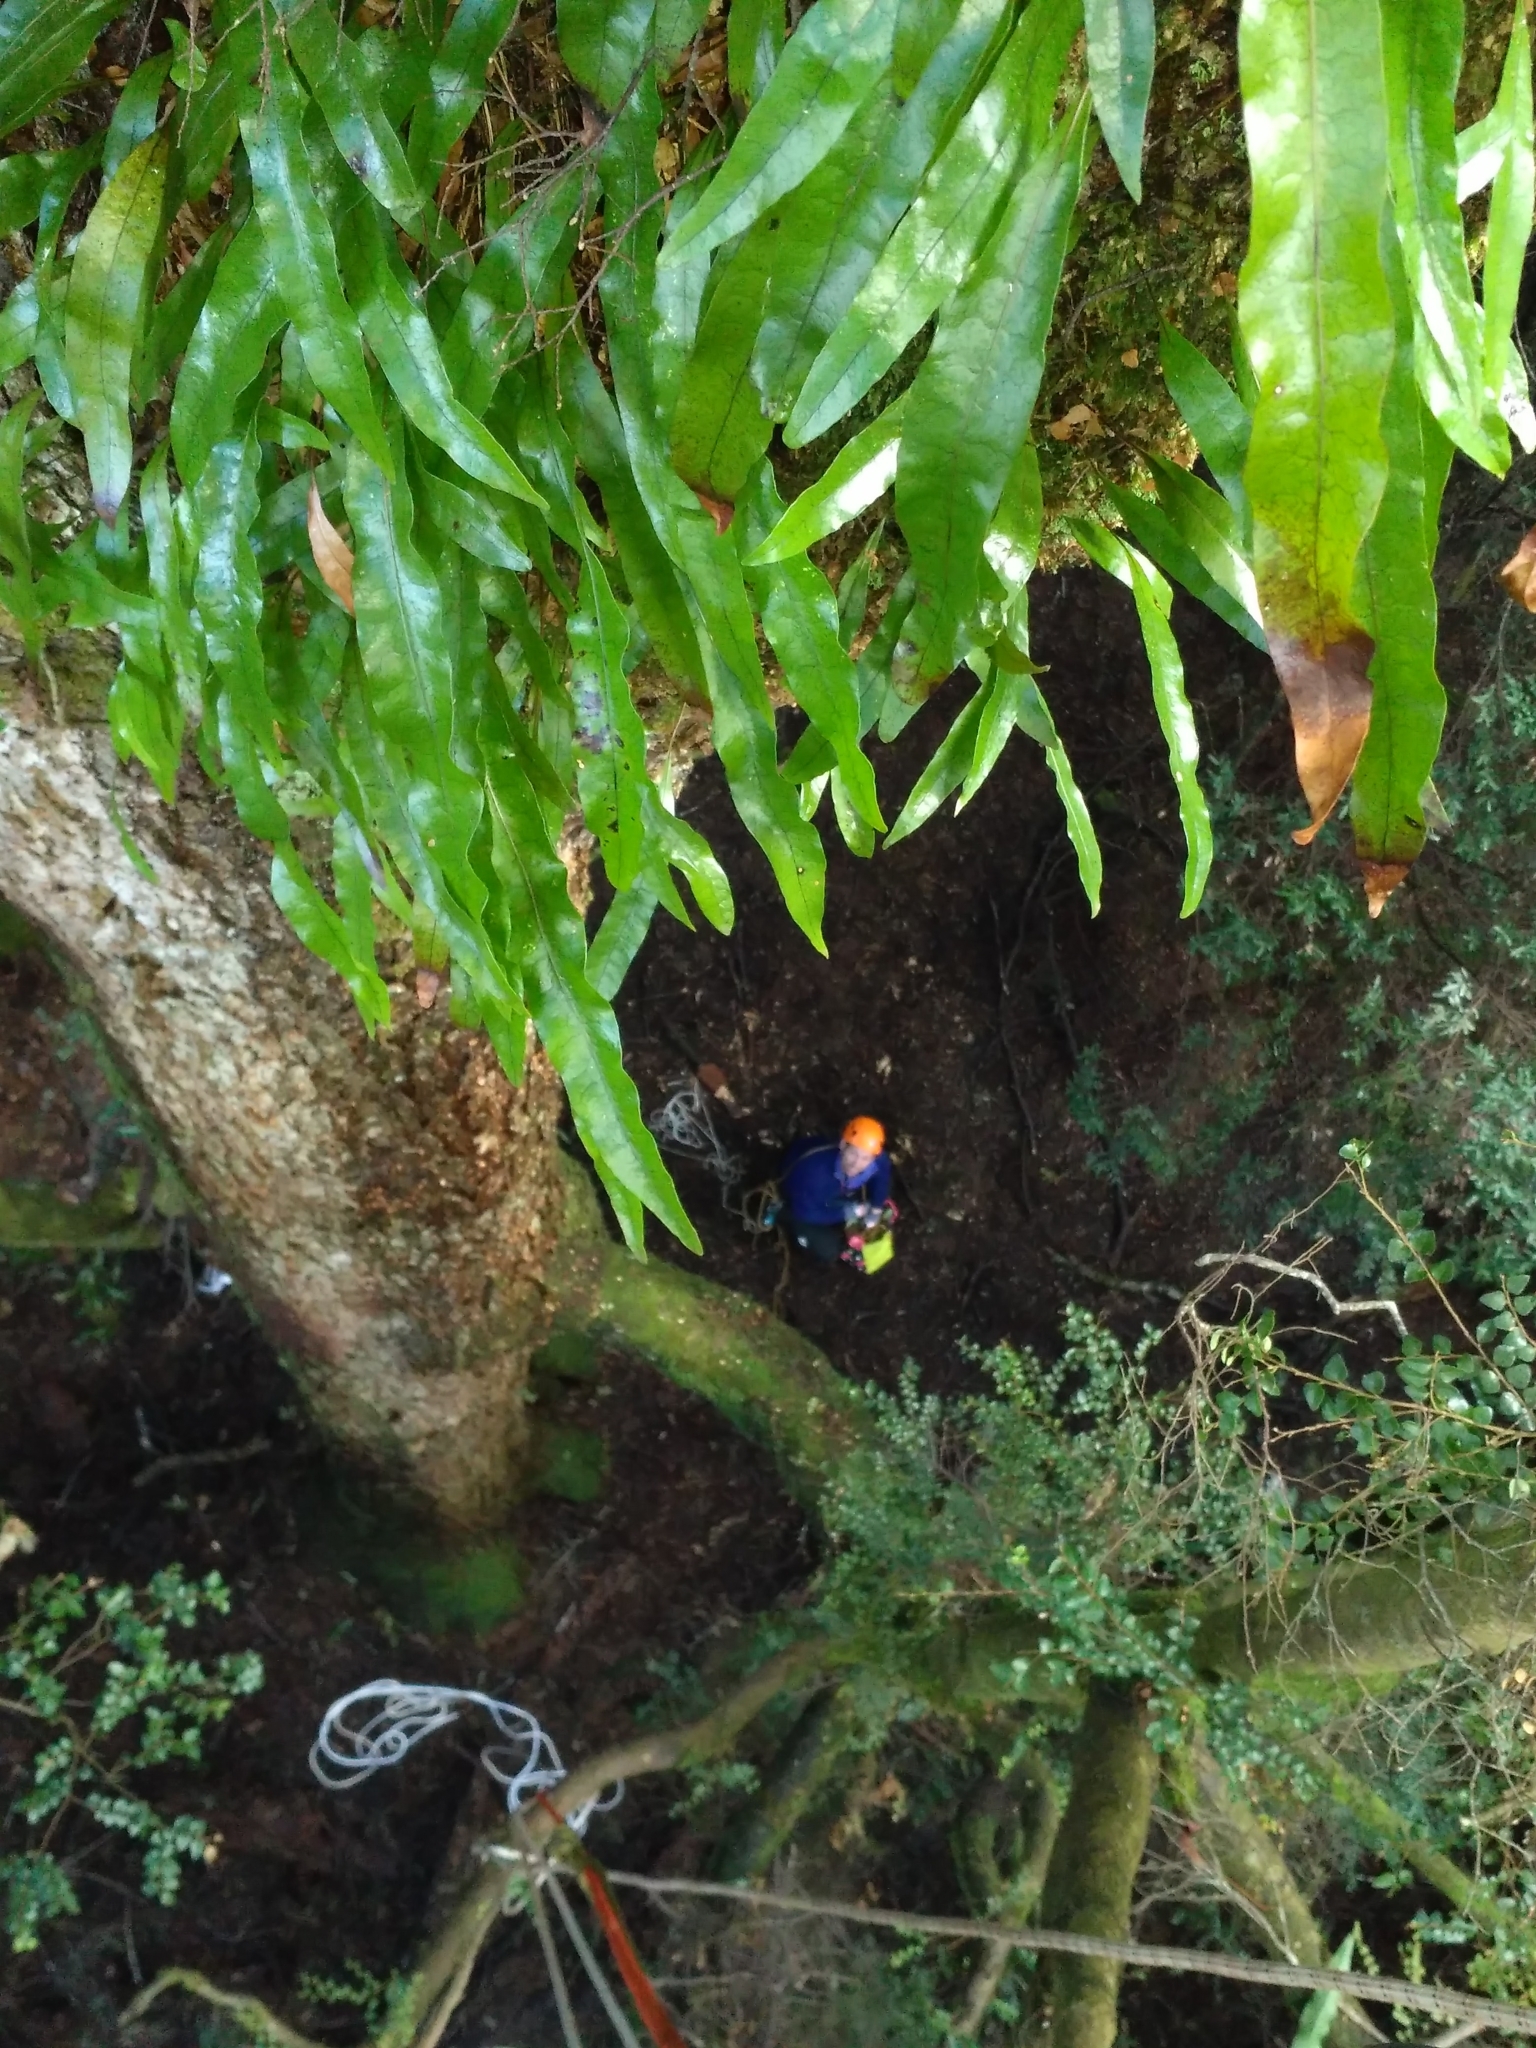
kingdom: Plantae
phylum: Tracheophyta
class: Polypodiopsida
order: Polypodiales
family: Polypodiaceae
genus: Lecanopteris
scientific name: Lecanopteris pustulata
